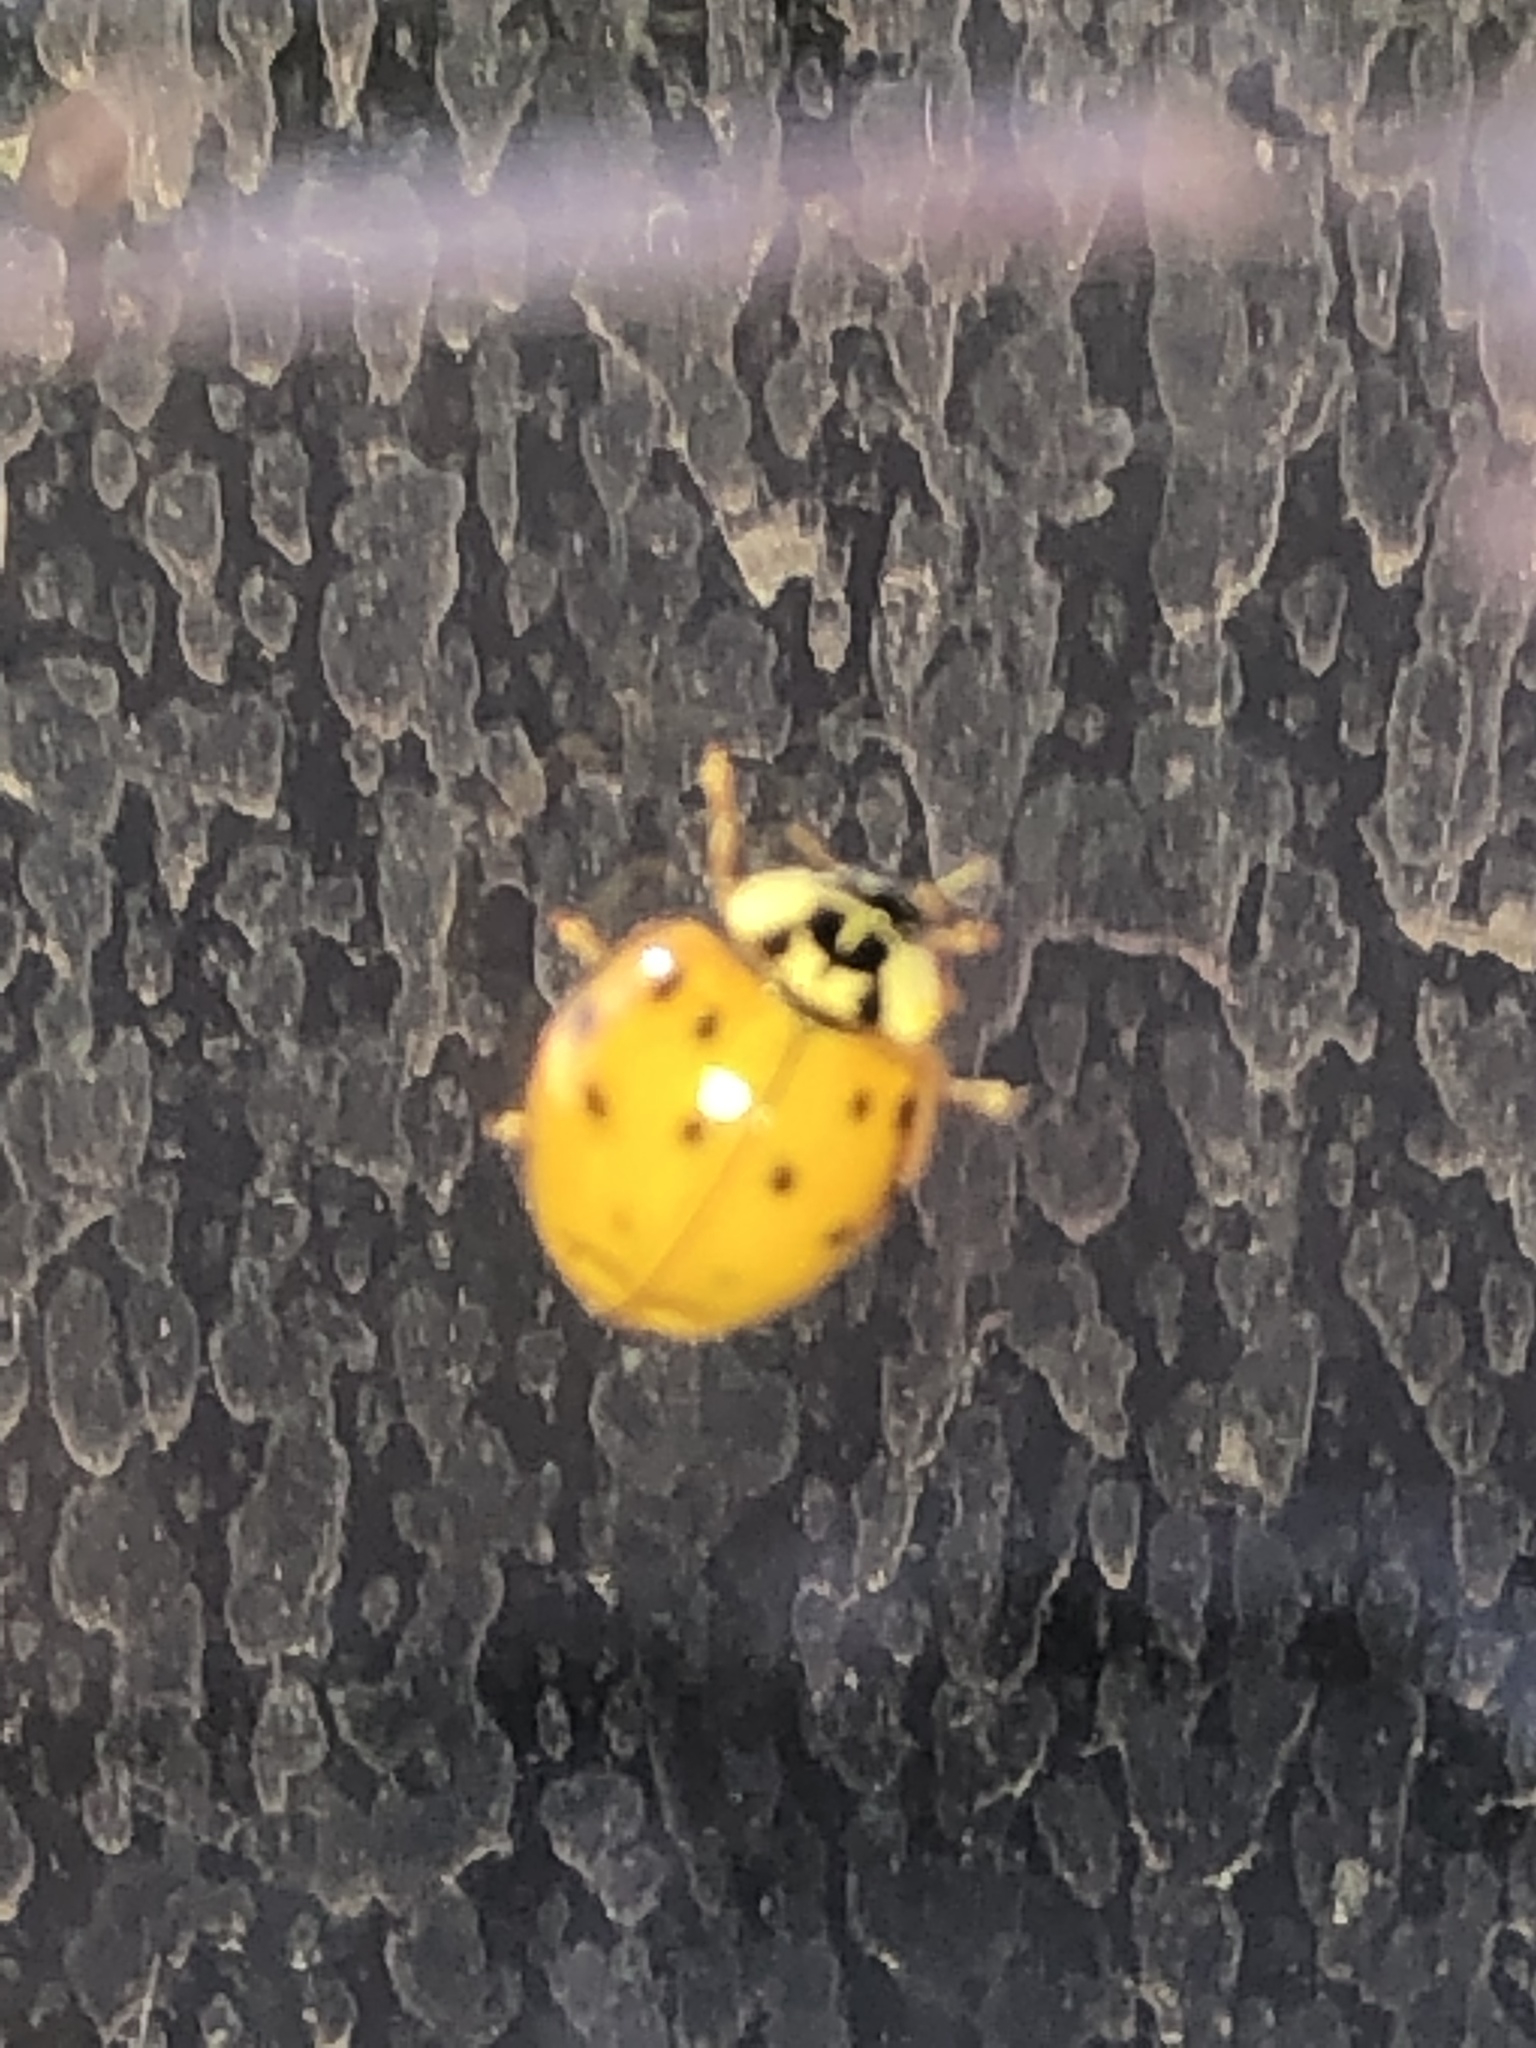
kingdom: Animalia
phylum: Arthropoda
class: Insecta
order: Coleoptera
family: Coccinellidae
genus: Harmonia
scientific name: Harmonia axyridis
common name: Harlequin ladybird
